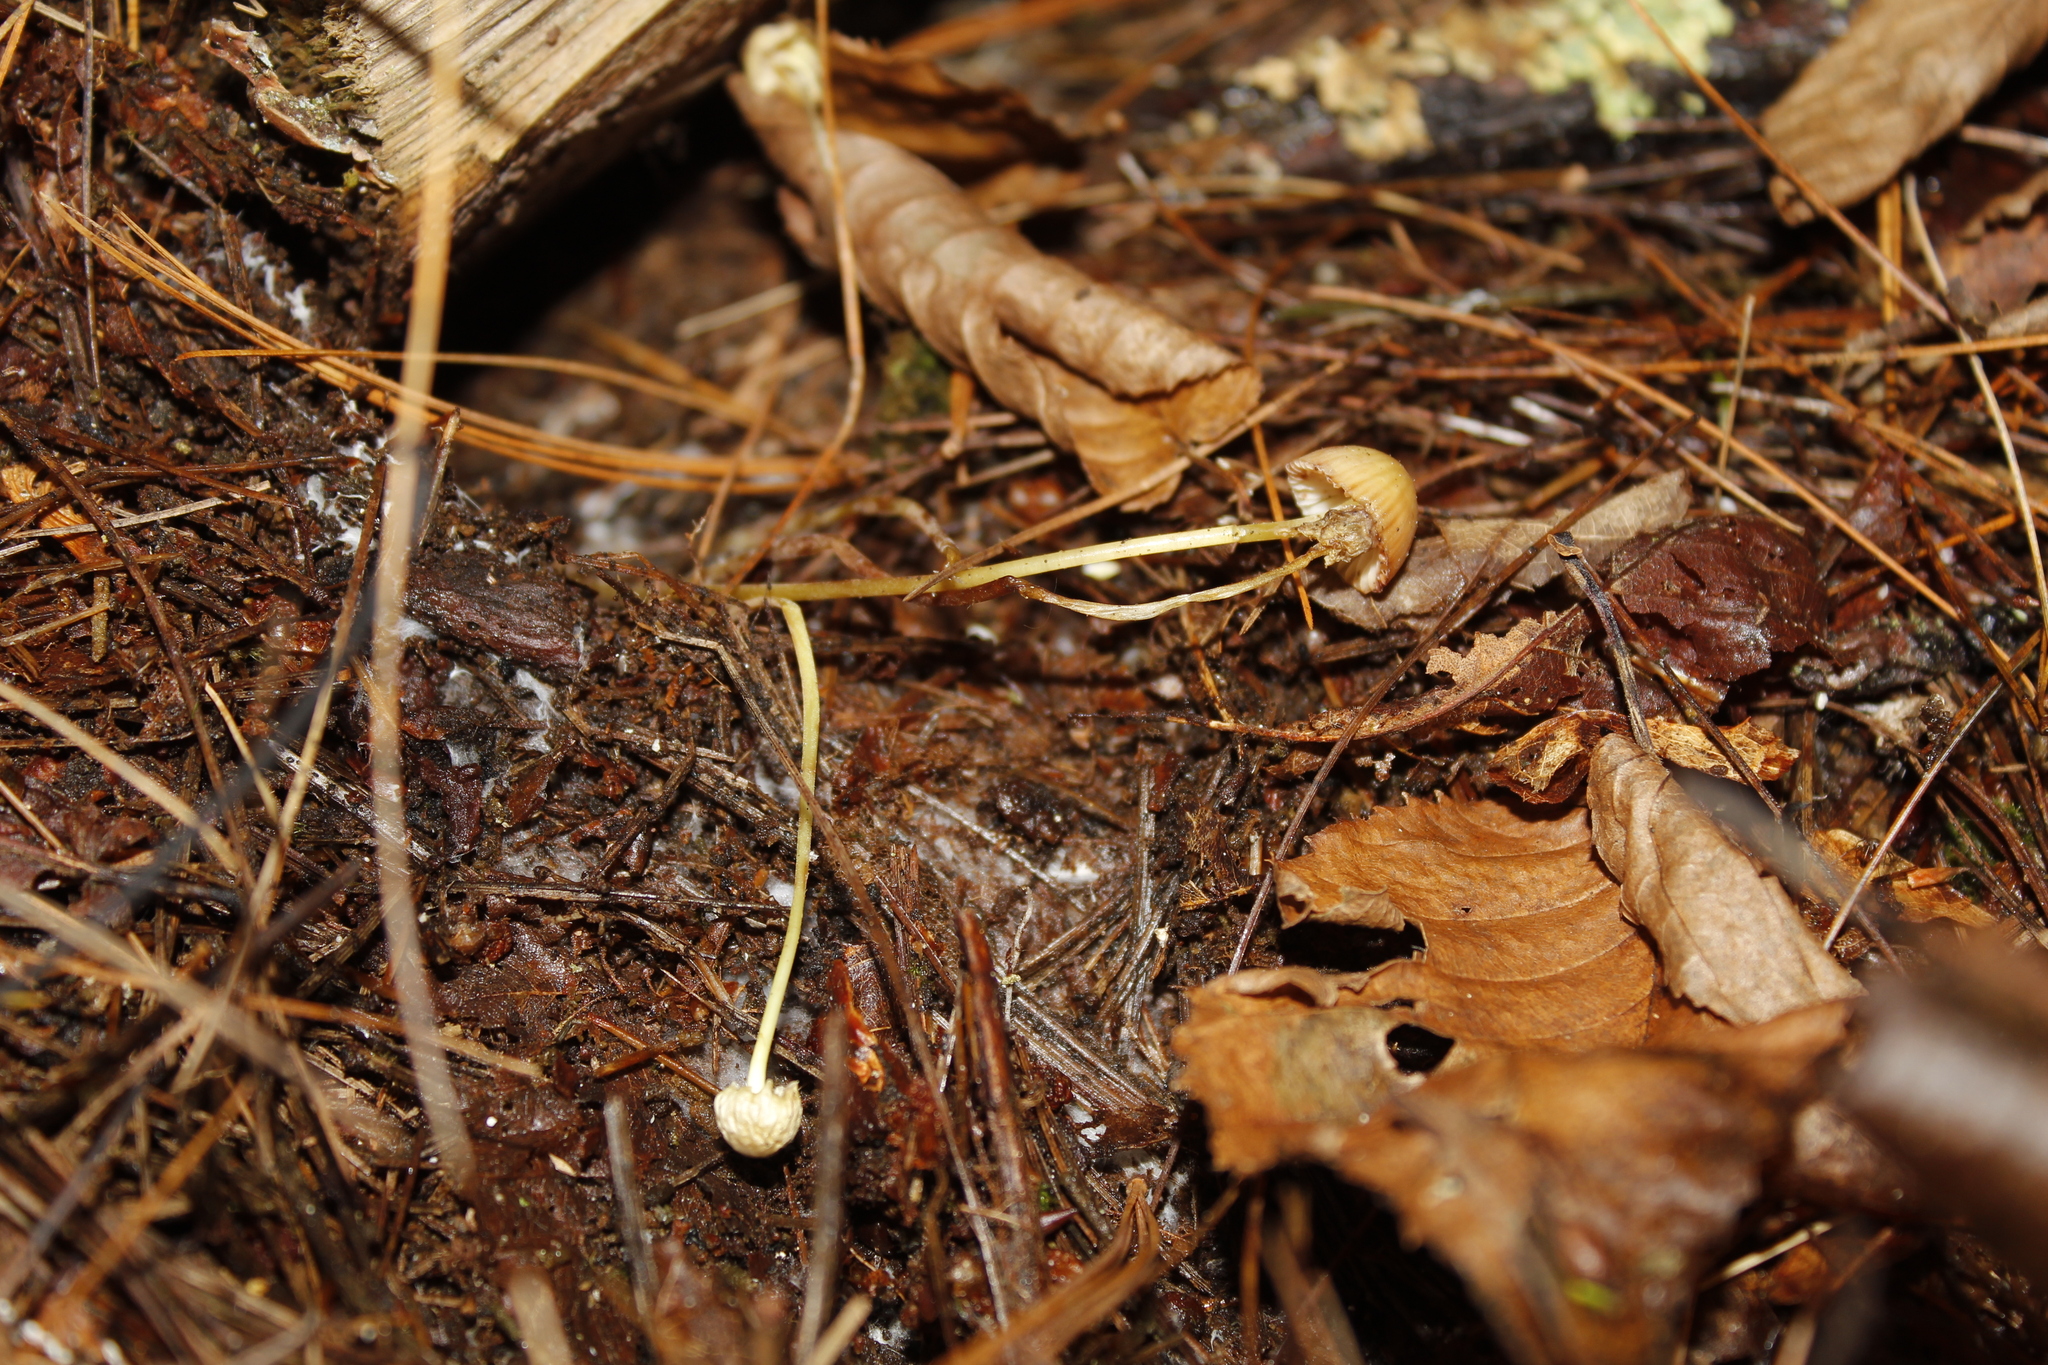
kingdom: Fungi
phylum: Basidiomycota
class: Agaricomycetes
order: Agaricales
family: Mycenaceae
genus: Mycena
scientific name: Mycena epipterygia
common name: Yellowleg bonnet
